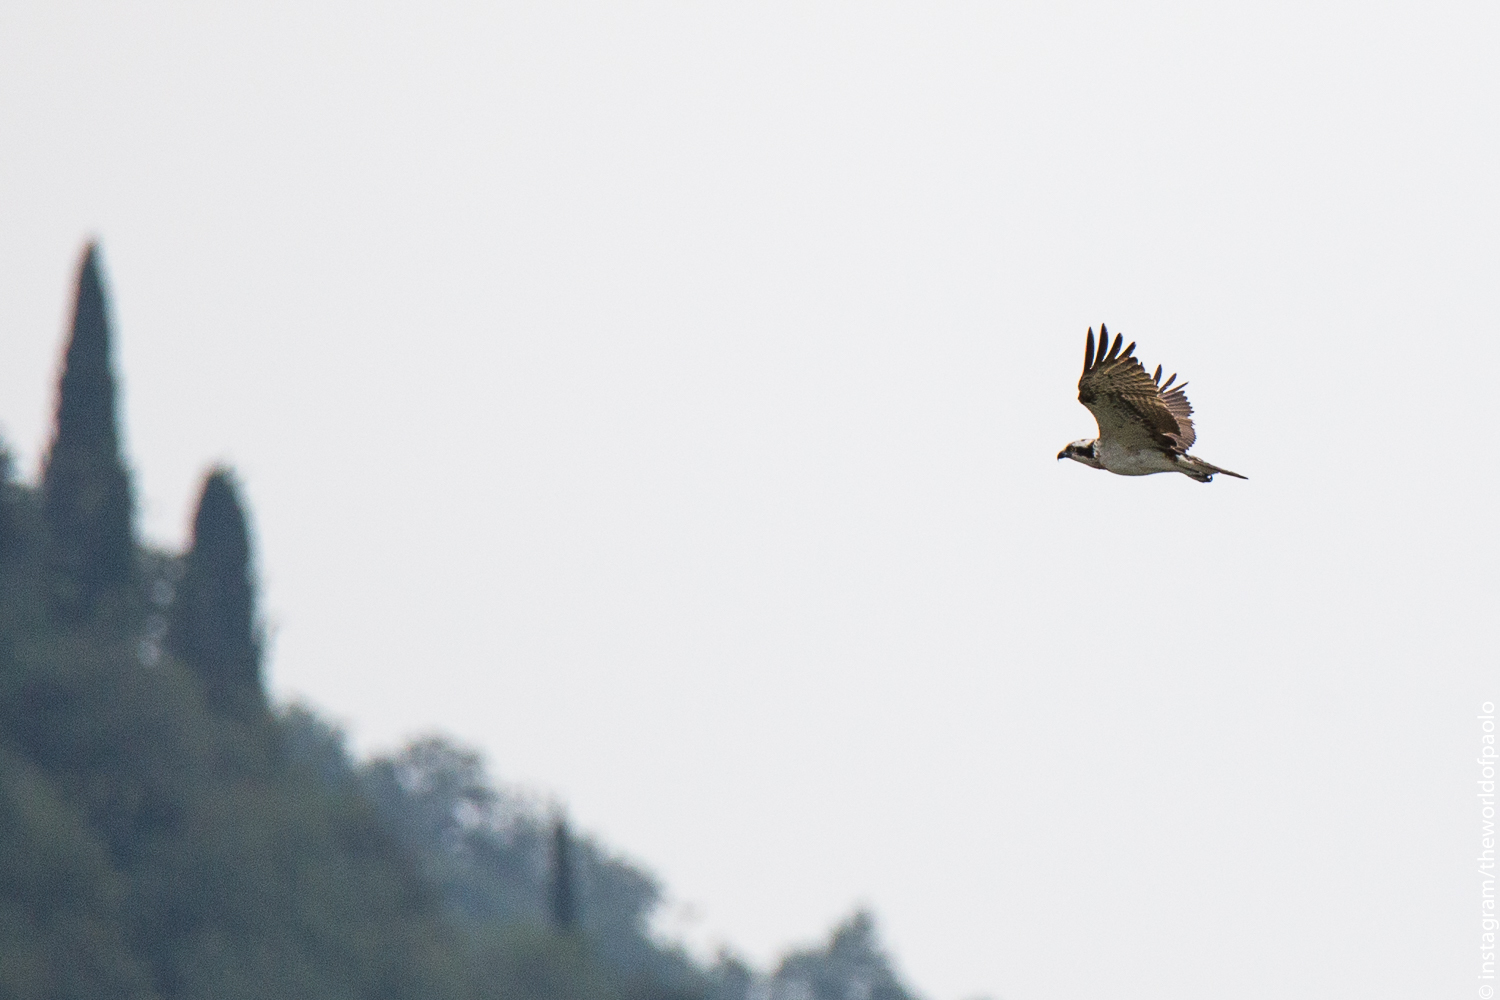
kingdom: Animalia
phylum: Chordata
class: Aves
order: Accipitriformes
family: Pandionidae
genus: Pandion
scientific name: Pandion haliaetus
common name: Osprey
